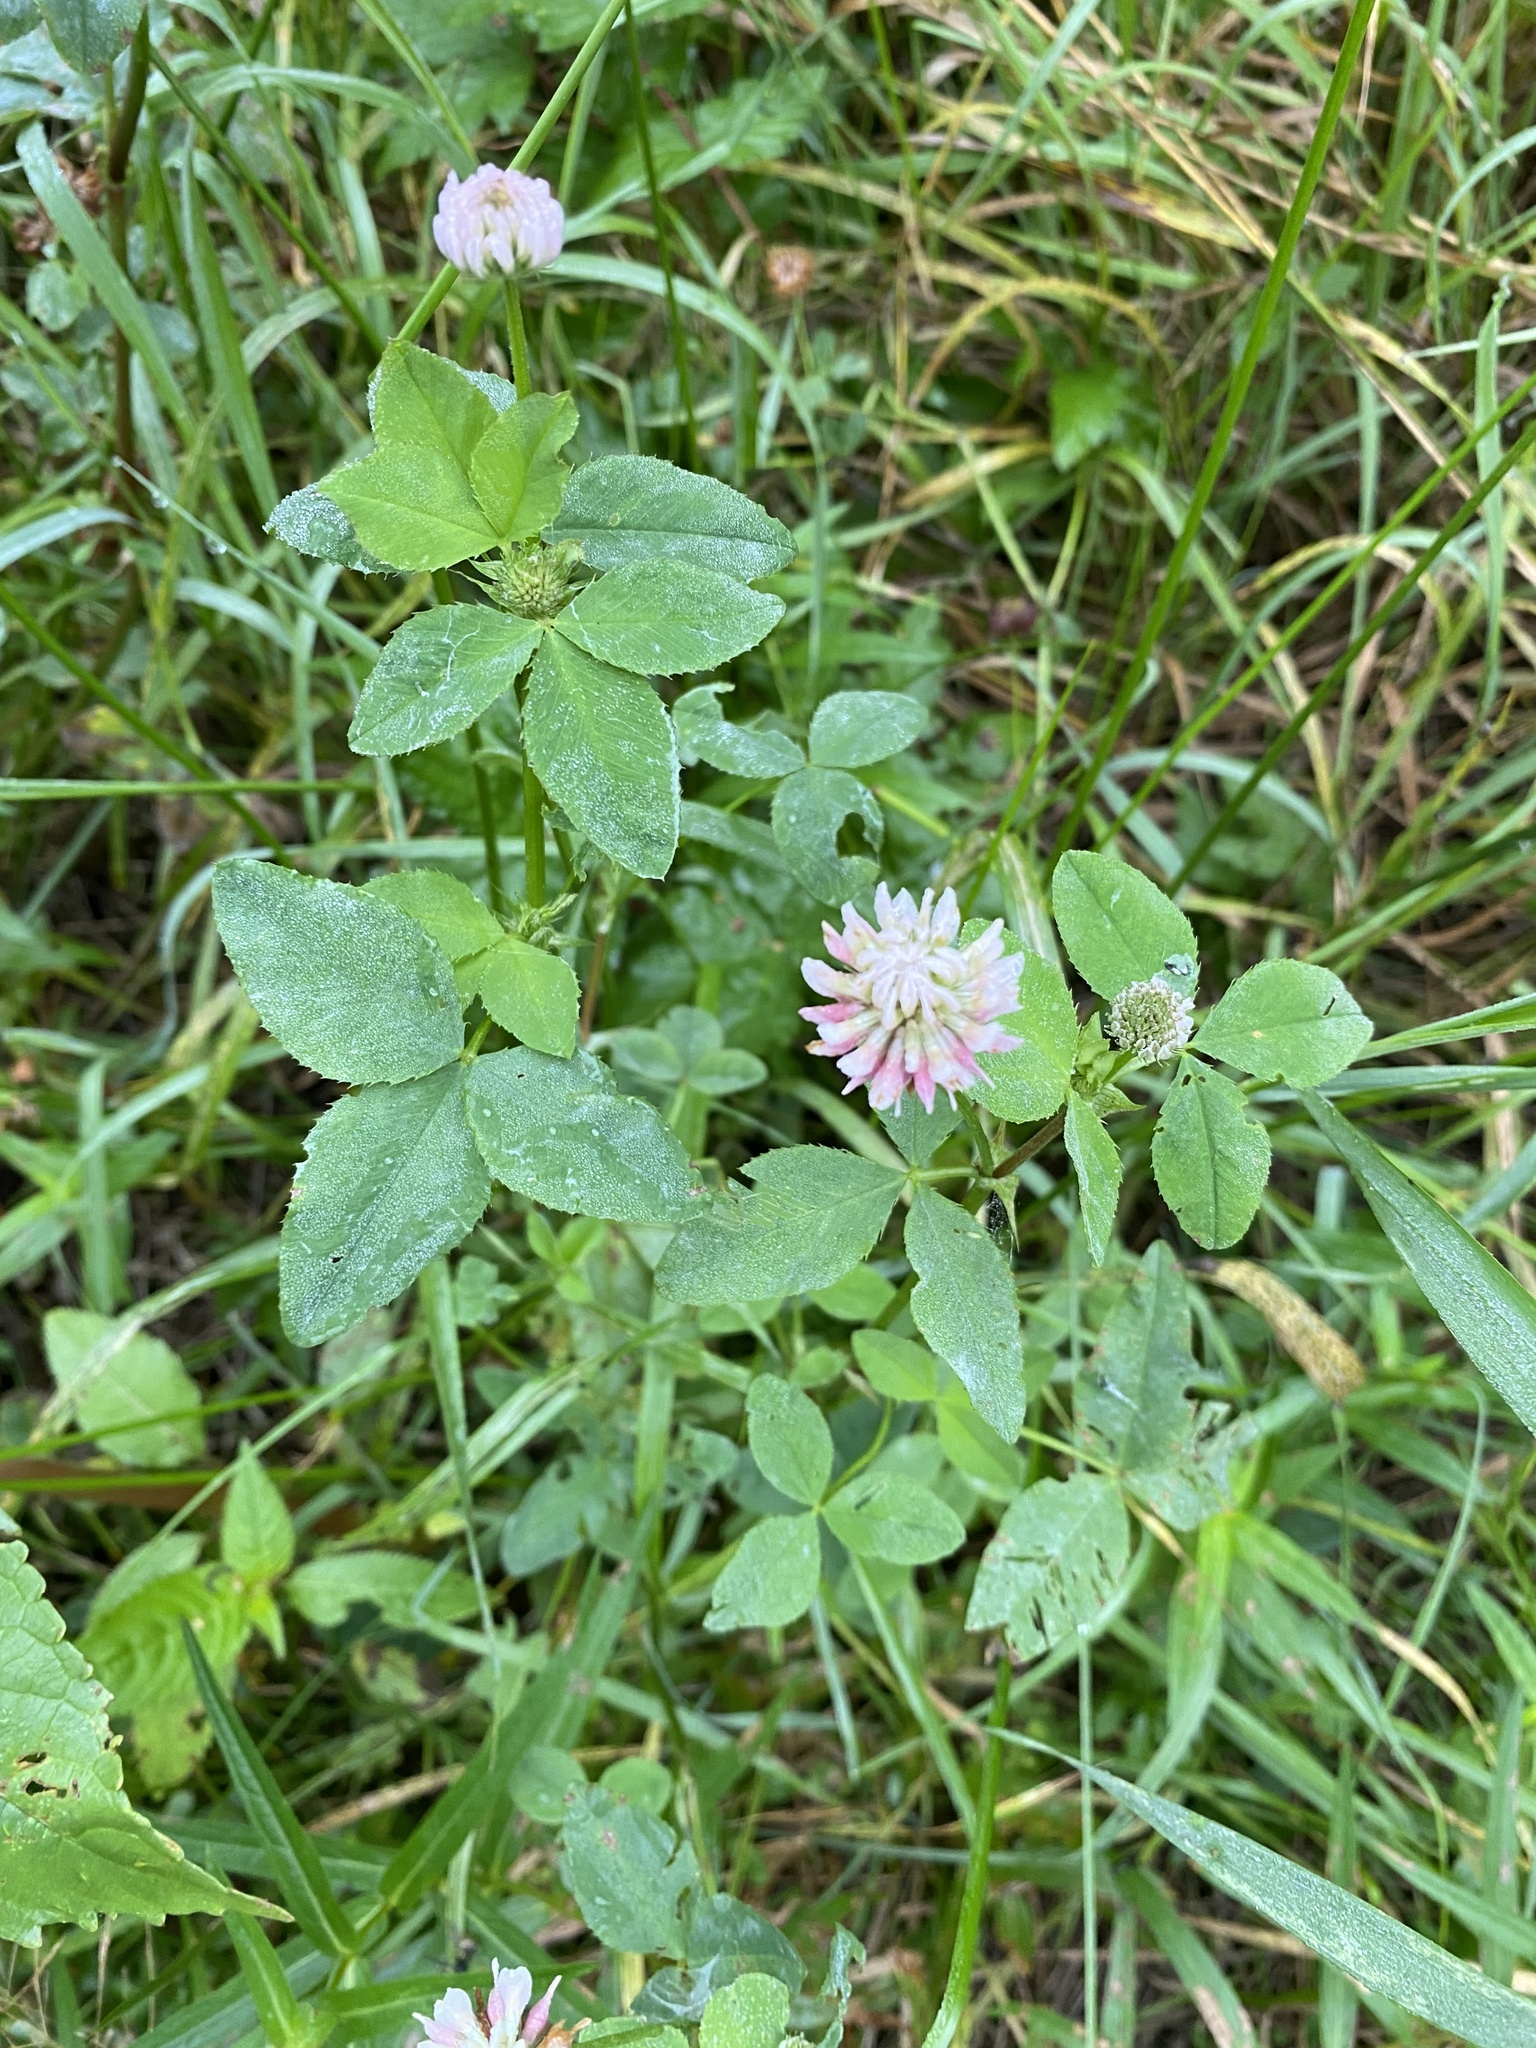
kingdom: Plantae
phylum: Tracheophyta
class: Magnoliopsida
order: Fabales
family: Fabaceae
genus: Trifolium
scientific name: Trifolium hybridum
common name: Alsike clover
